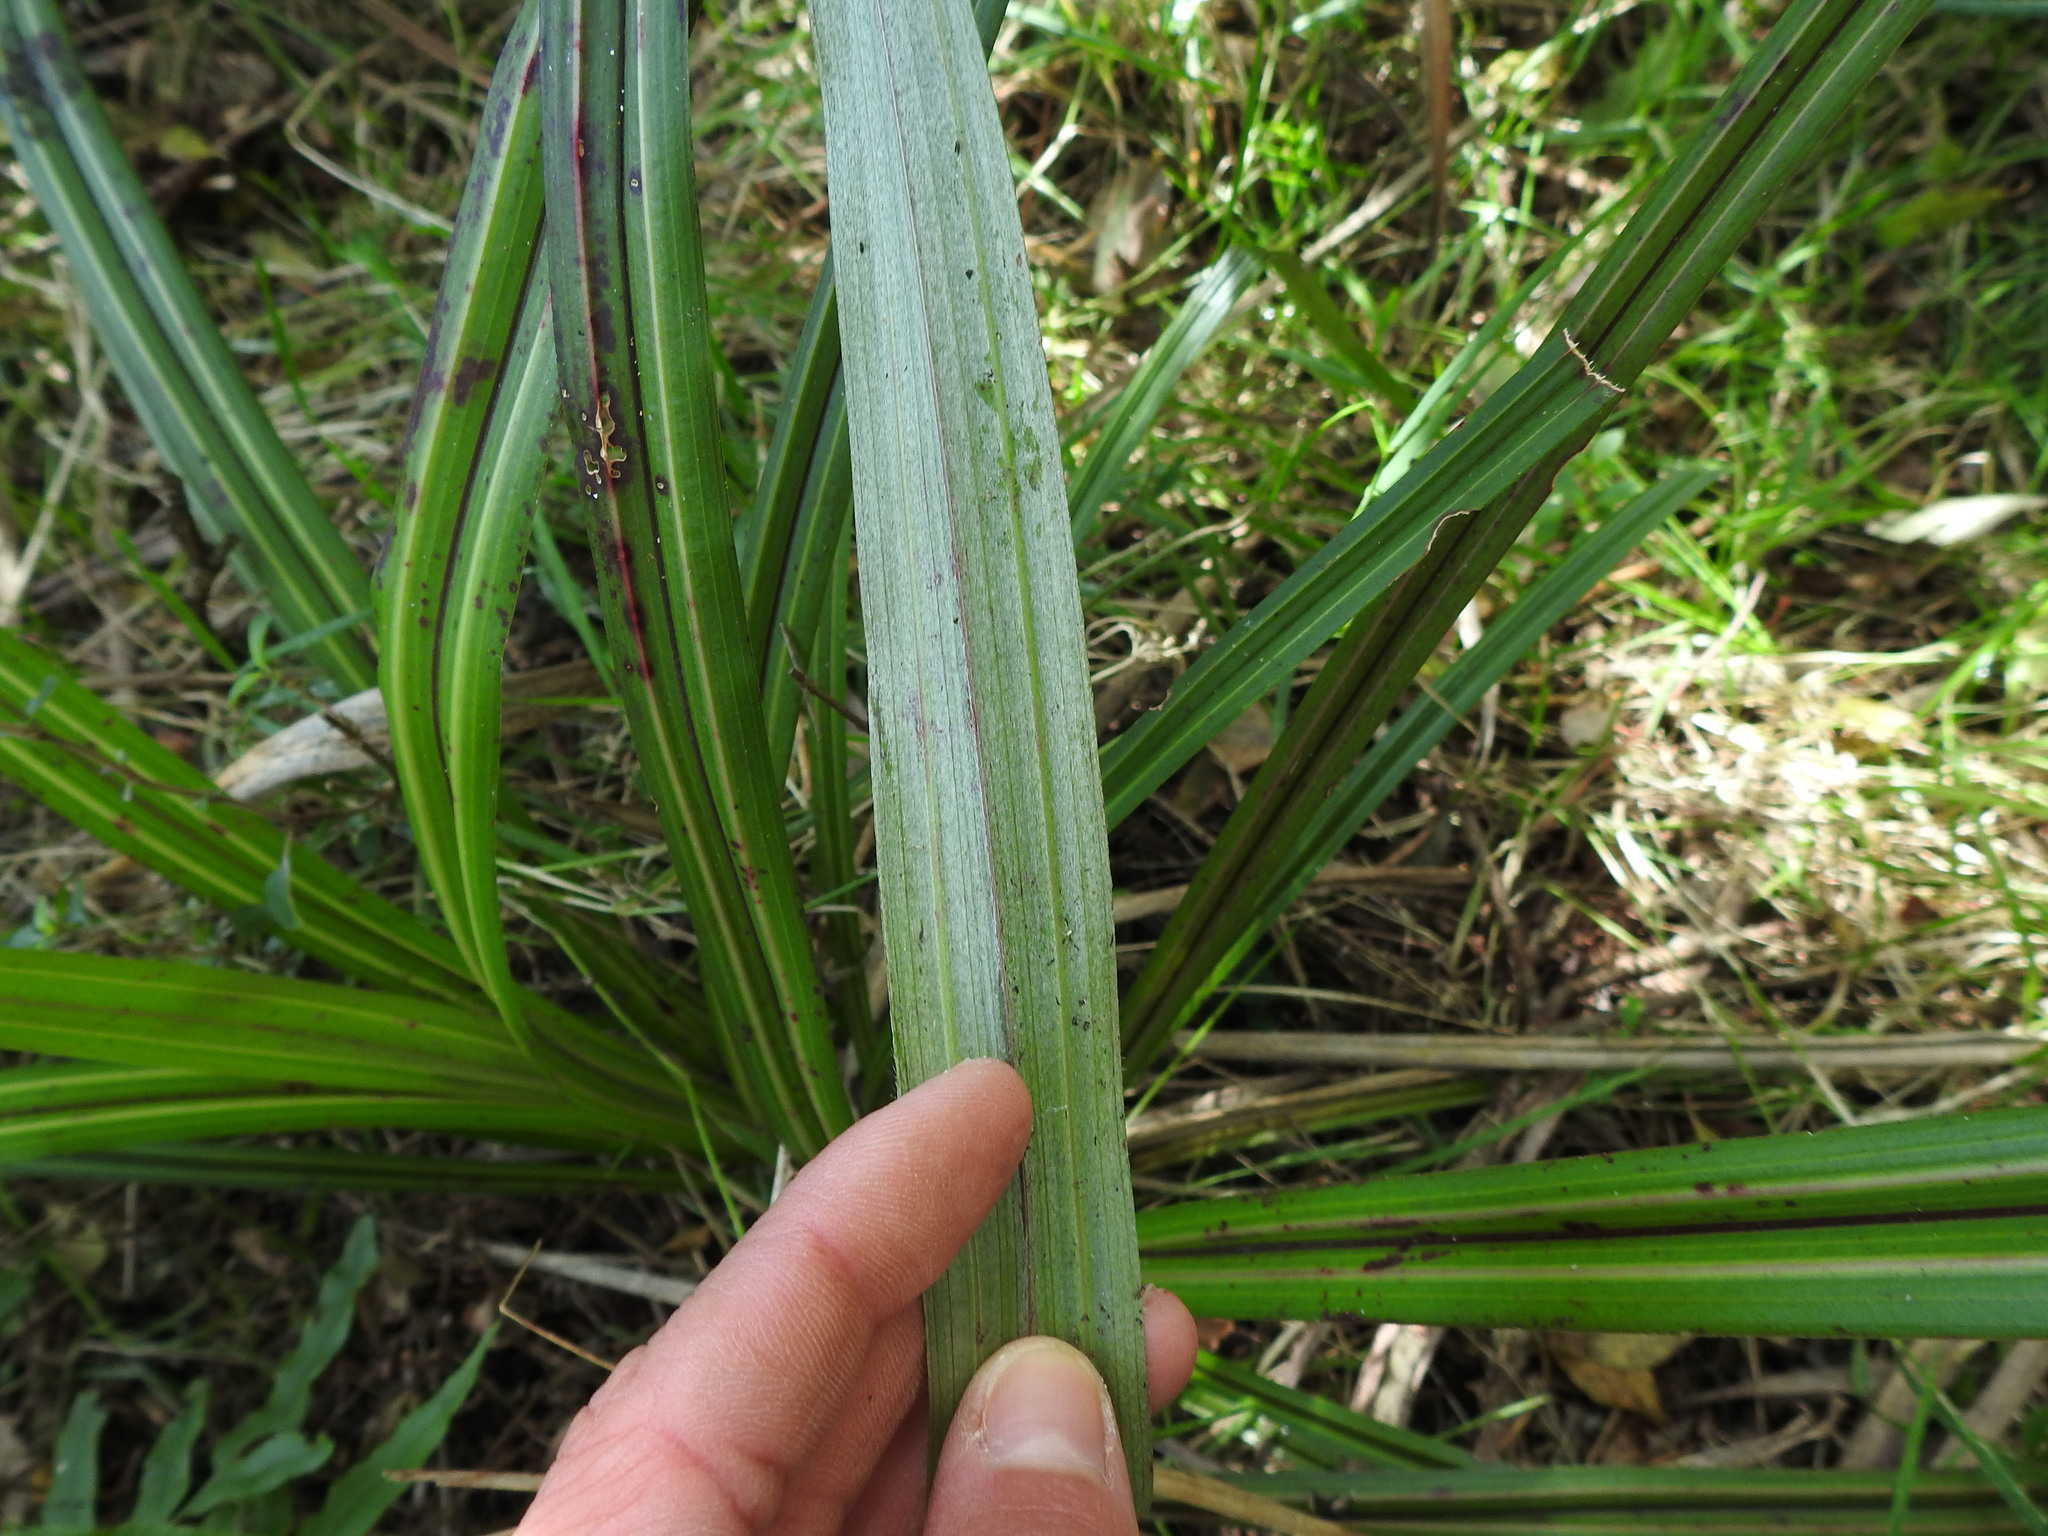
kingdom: Plantae
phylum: Tracheophyta
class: Liliopsida
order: Asparagales
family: Asteliaceae
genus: Astelia
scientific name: Astelia fragrans
